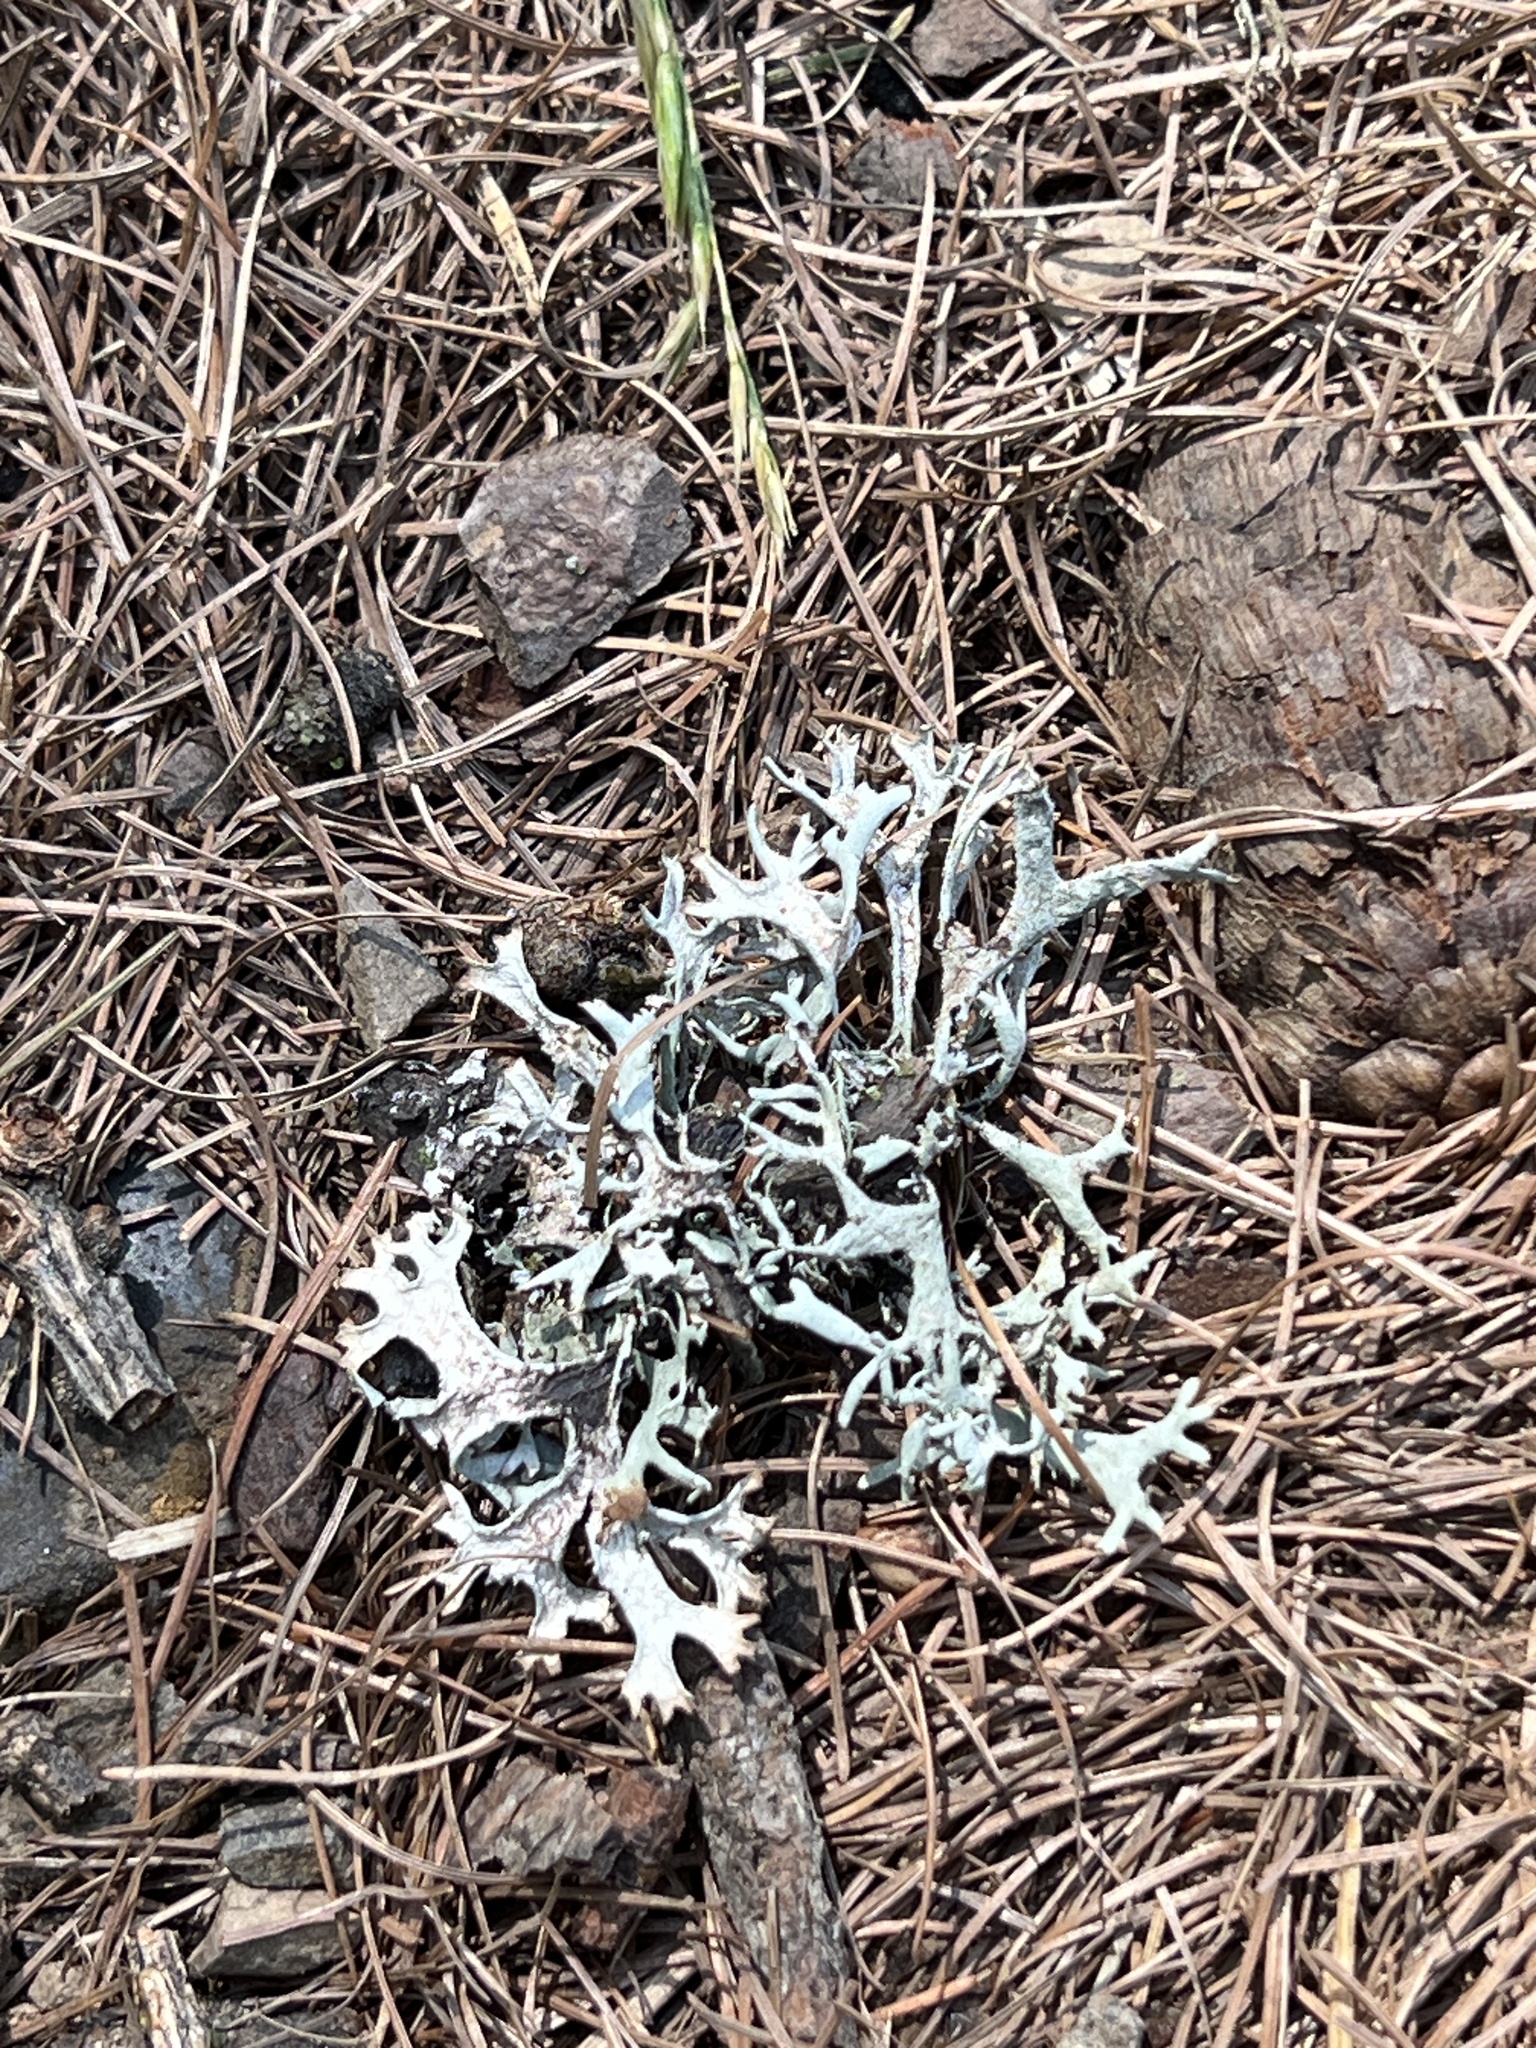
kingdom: Fungi
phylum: Ascomycota
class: Lecanoromycetes
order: Lecanorales
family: Parmeliaceae
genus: Pseudevernia
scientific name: Pseudevernia furfuracea
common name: Tree moss
